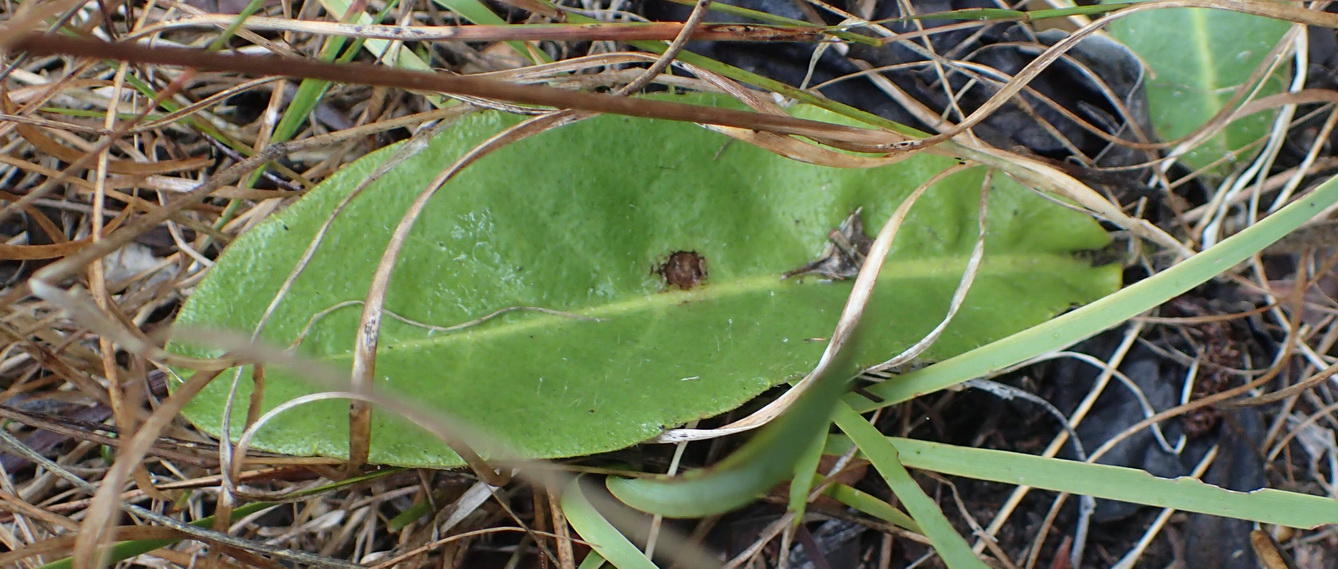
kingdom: Plantae
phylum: Tracheophyta
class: Magnoliopsida
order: Asterales
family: Asteraceae
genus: Piloselloides
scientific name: Piloselloides hirsuta
